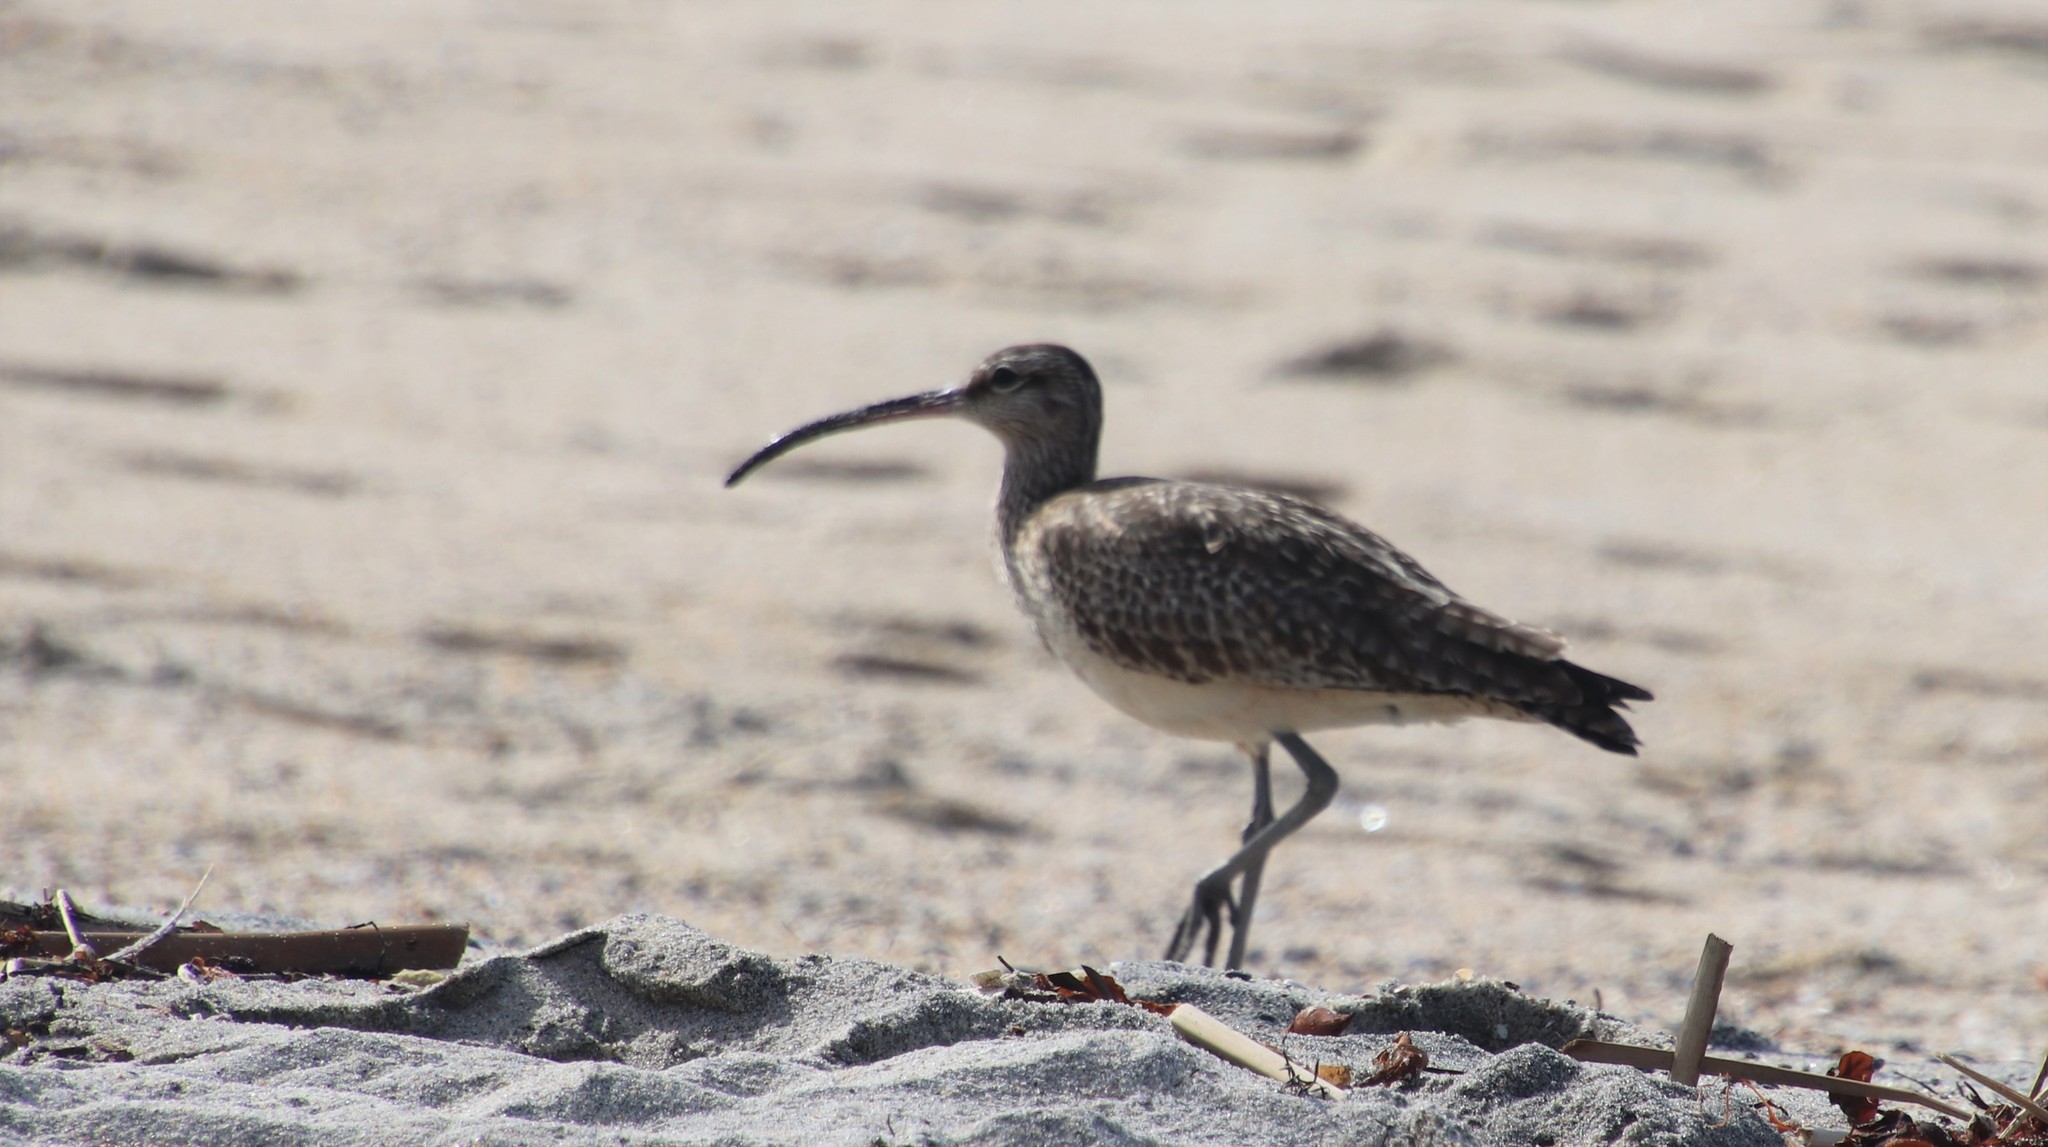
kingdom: Animalia
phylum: Chordata
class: Aves
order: Charadriiformes
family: Scolopacidae
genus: Numenius
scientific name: Numenius phaeopus
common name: Whimbrel
